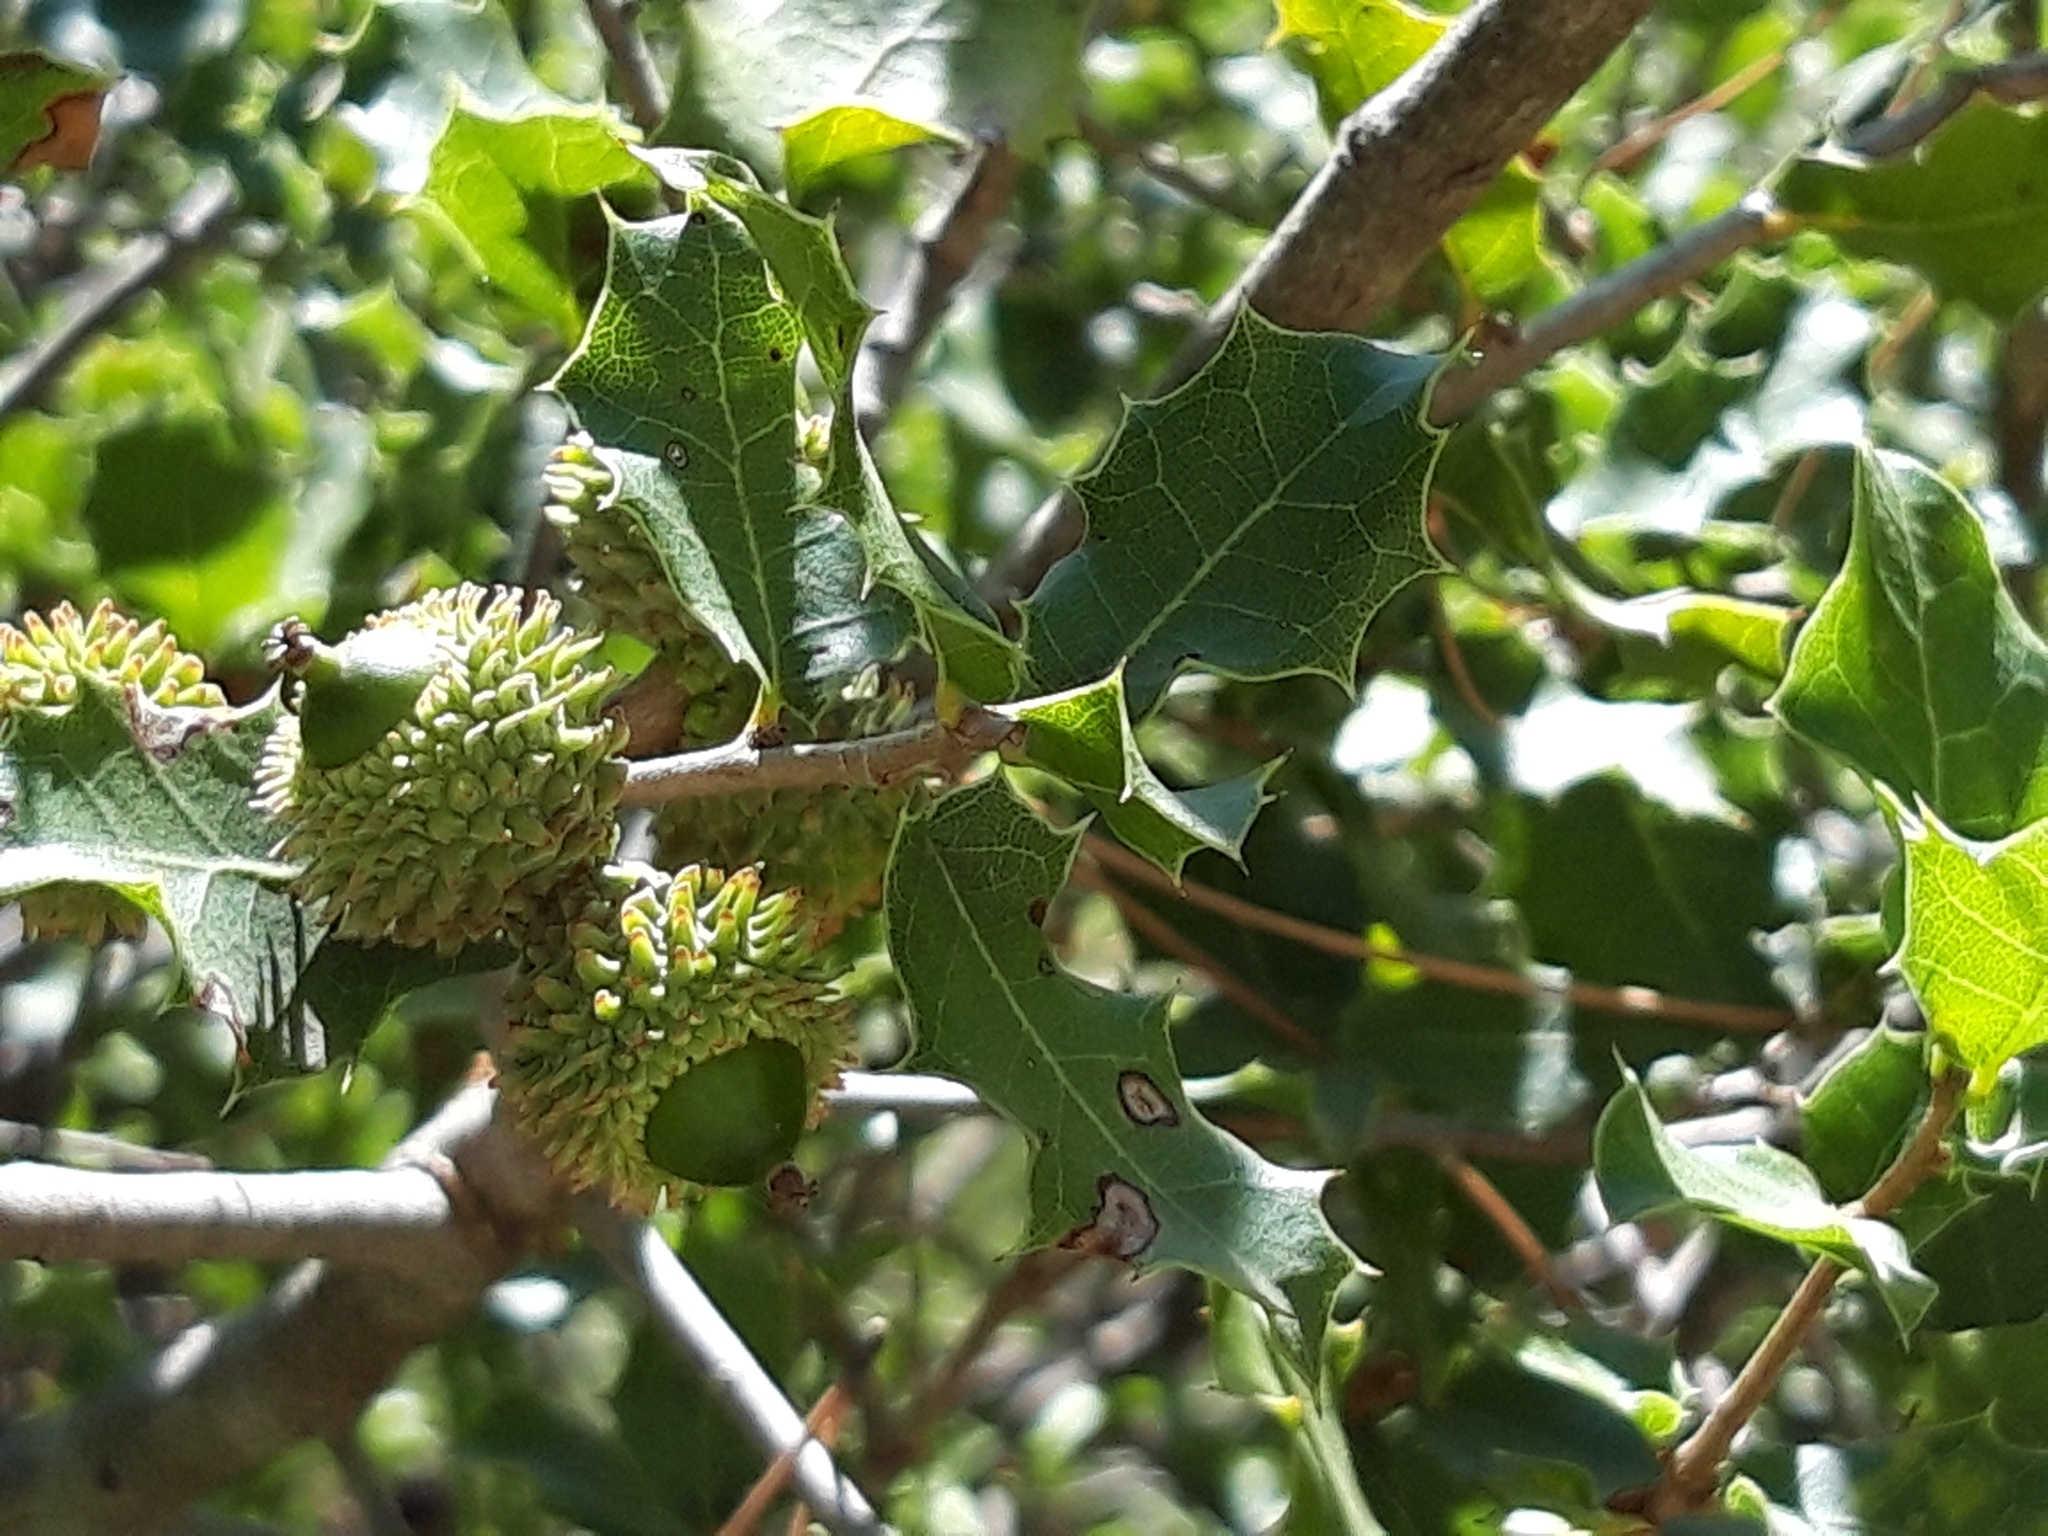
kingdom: Plantae
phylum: Tracheophyta
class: Magnoliopsida
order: Fagales
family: Fagaceae
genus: Quercus
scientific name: Quercus coccifera
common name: Kermes oak
